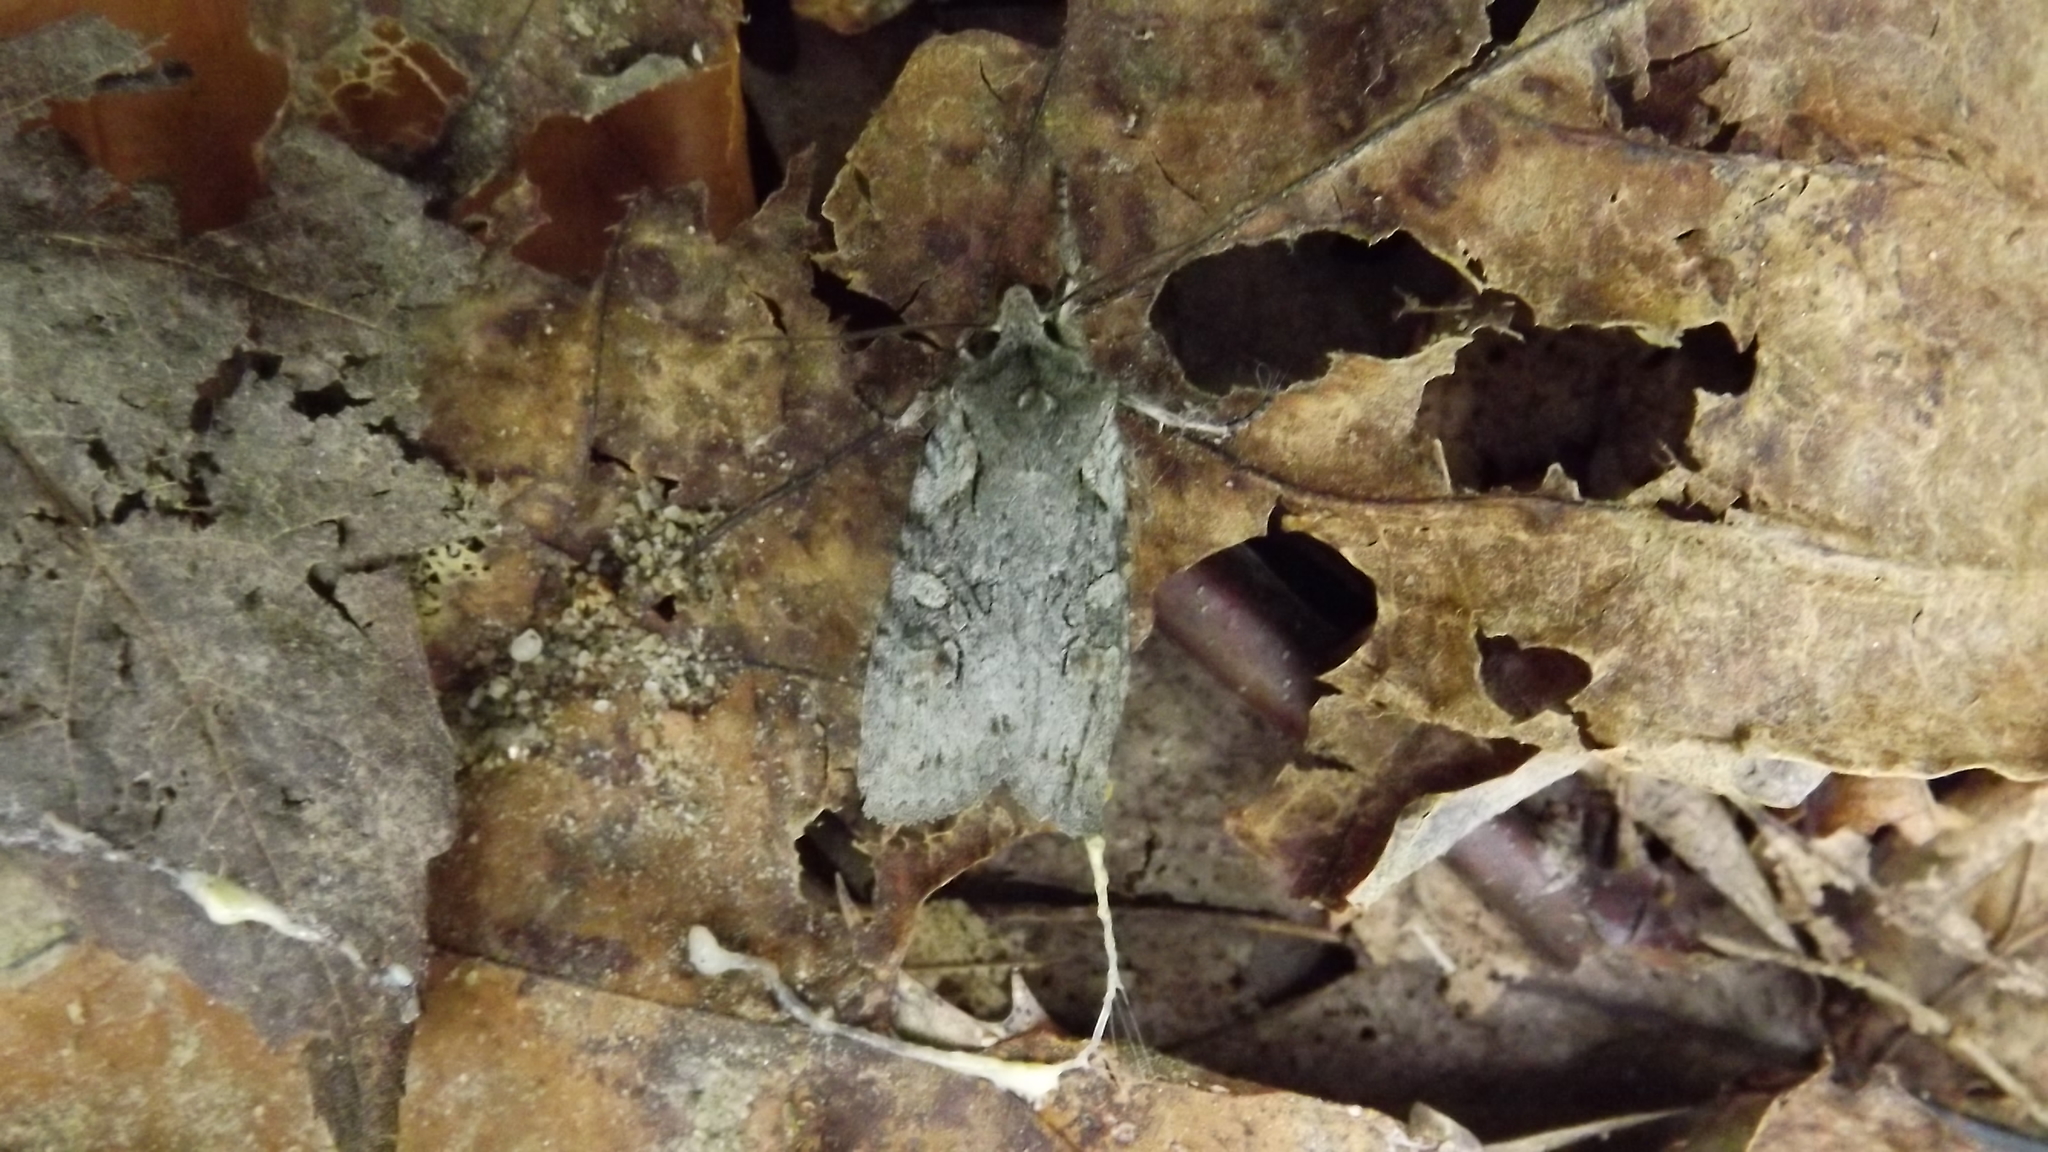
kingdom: Animalia
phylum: Arthropoda
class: Insecta
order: Lepidoptera
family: Noctuidae
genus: Lithophane
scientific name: Lithophane antennata
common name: Ashen pinion
